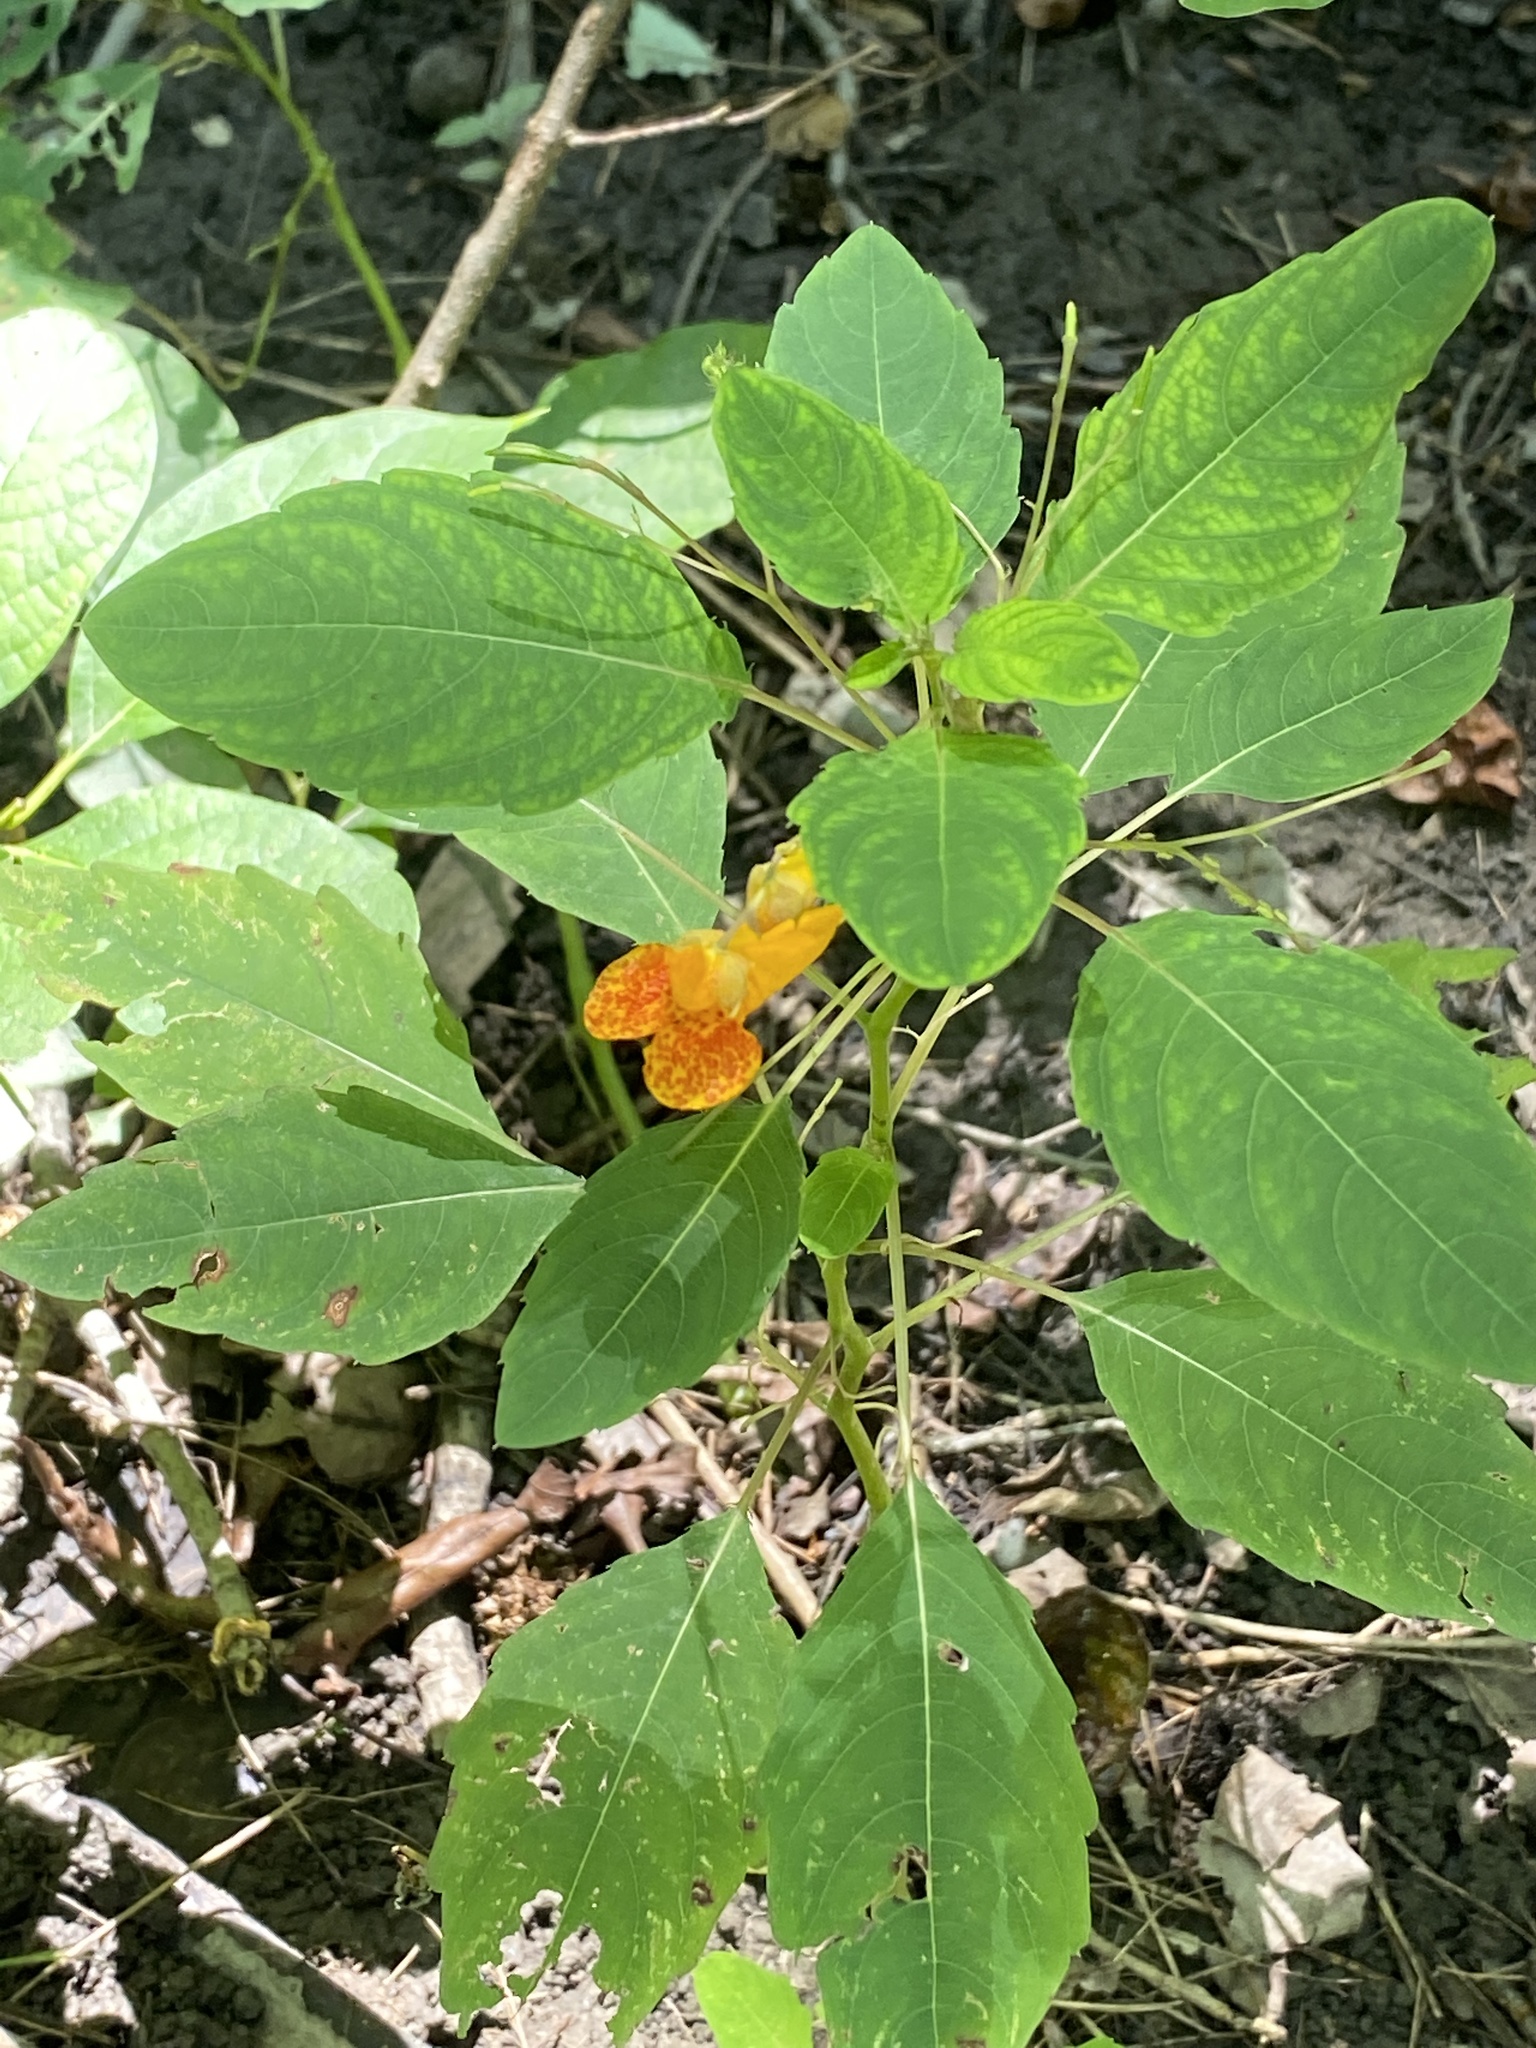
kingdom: Plantae
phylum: Tracheophyta
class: Magnoliopsida
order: Ericales
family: Balsaminaceae
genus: Impatiens
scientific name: Impatiens capensis
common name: Orange balsam
